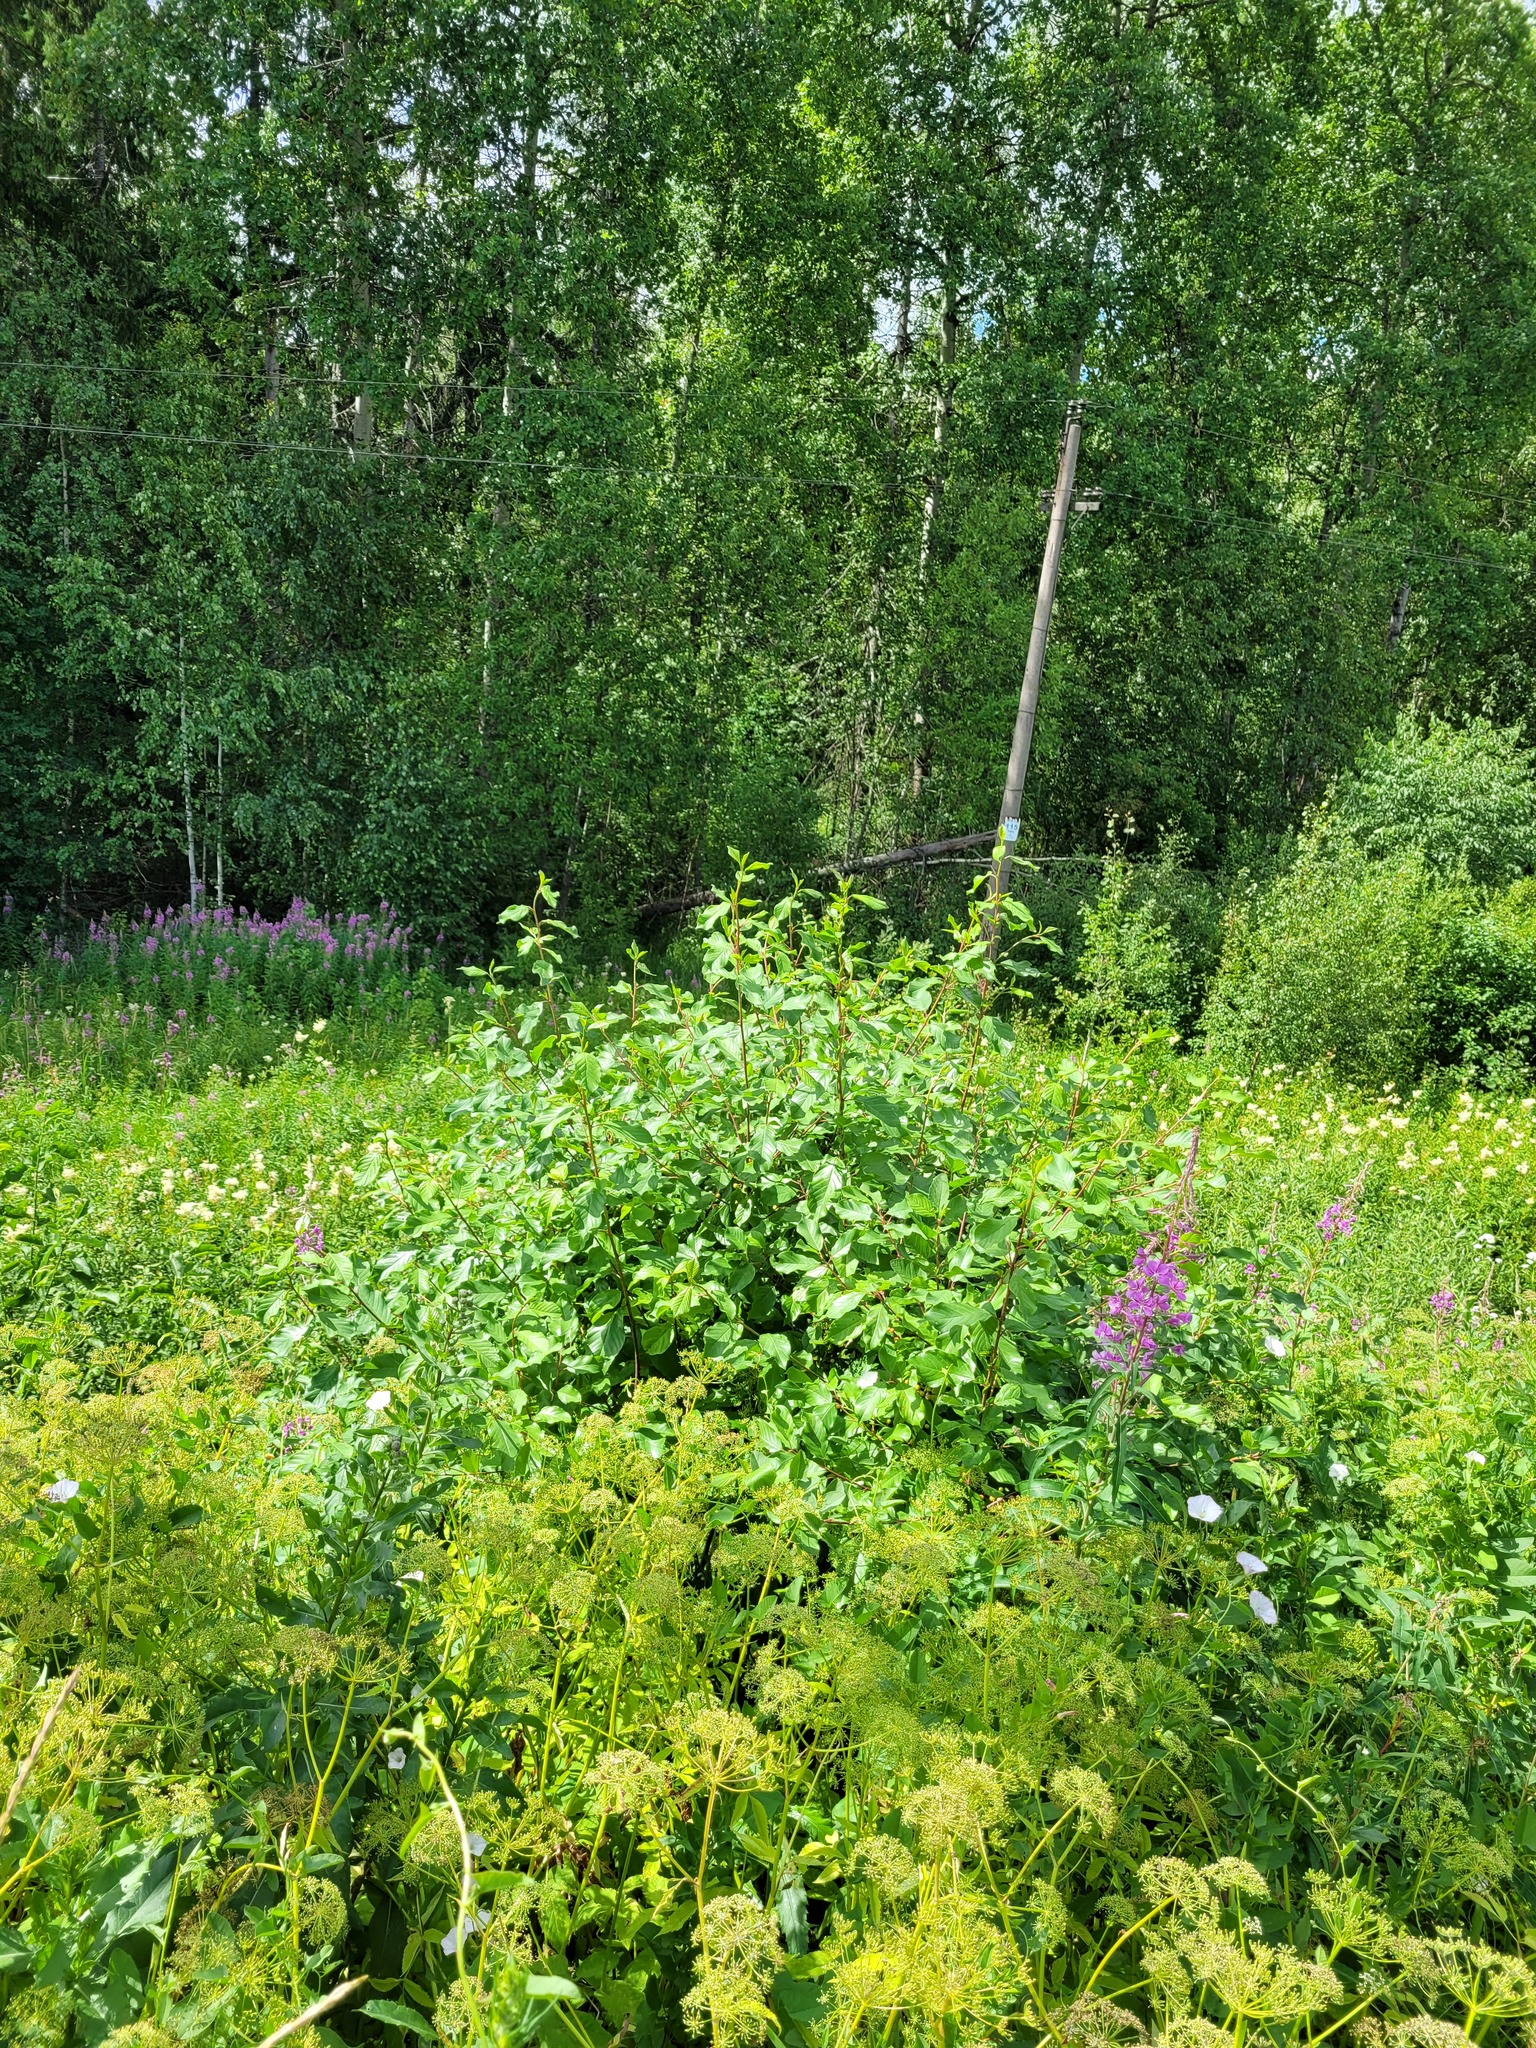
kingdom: Plantae
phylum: Tracheophyta
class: Magnoliopsida
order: Rosales
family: Rhamnaceae
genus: Frangula
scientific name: Frangula alnus
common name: Alder buckthorn
